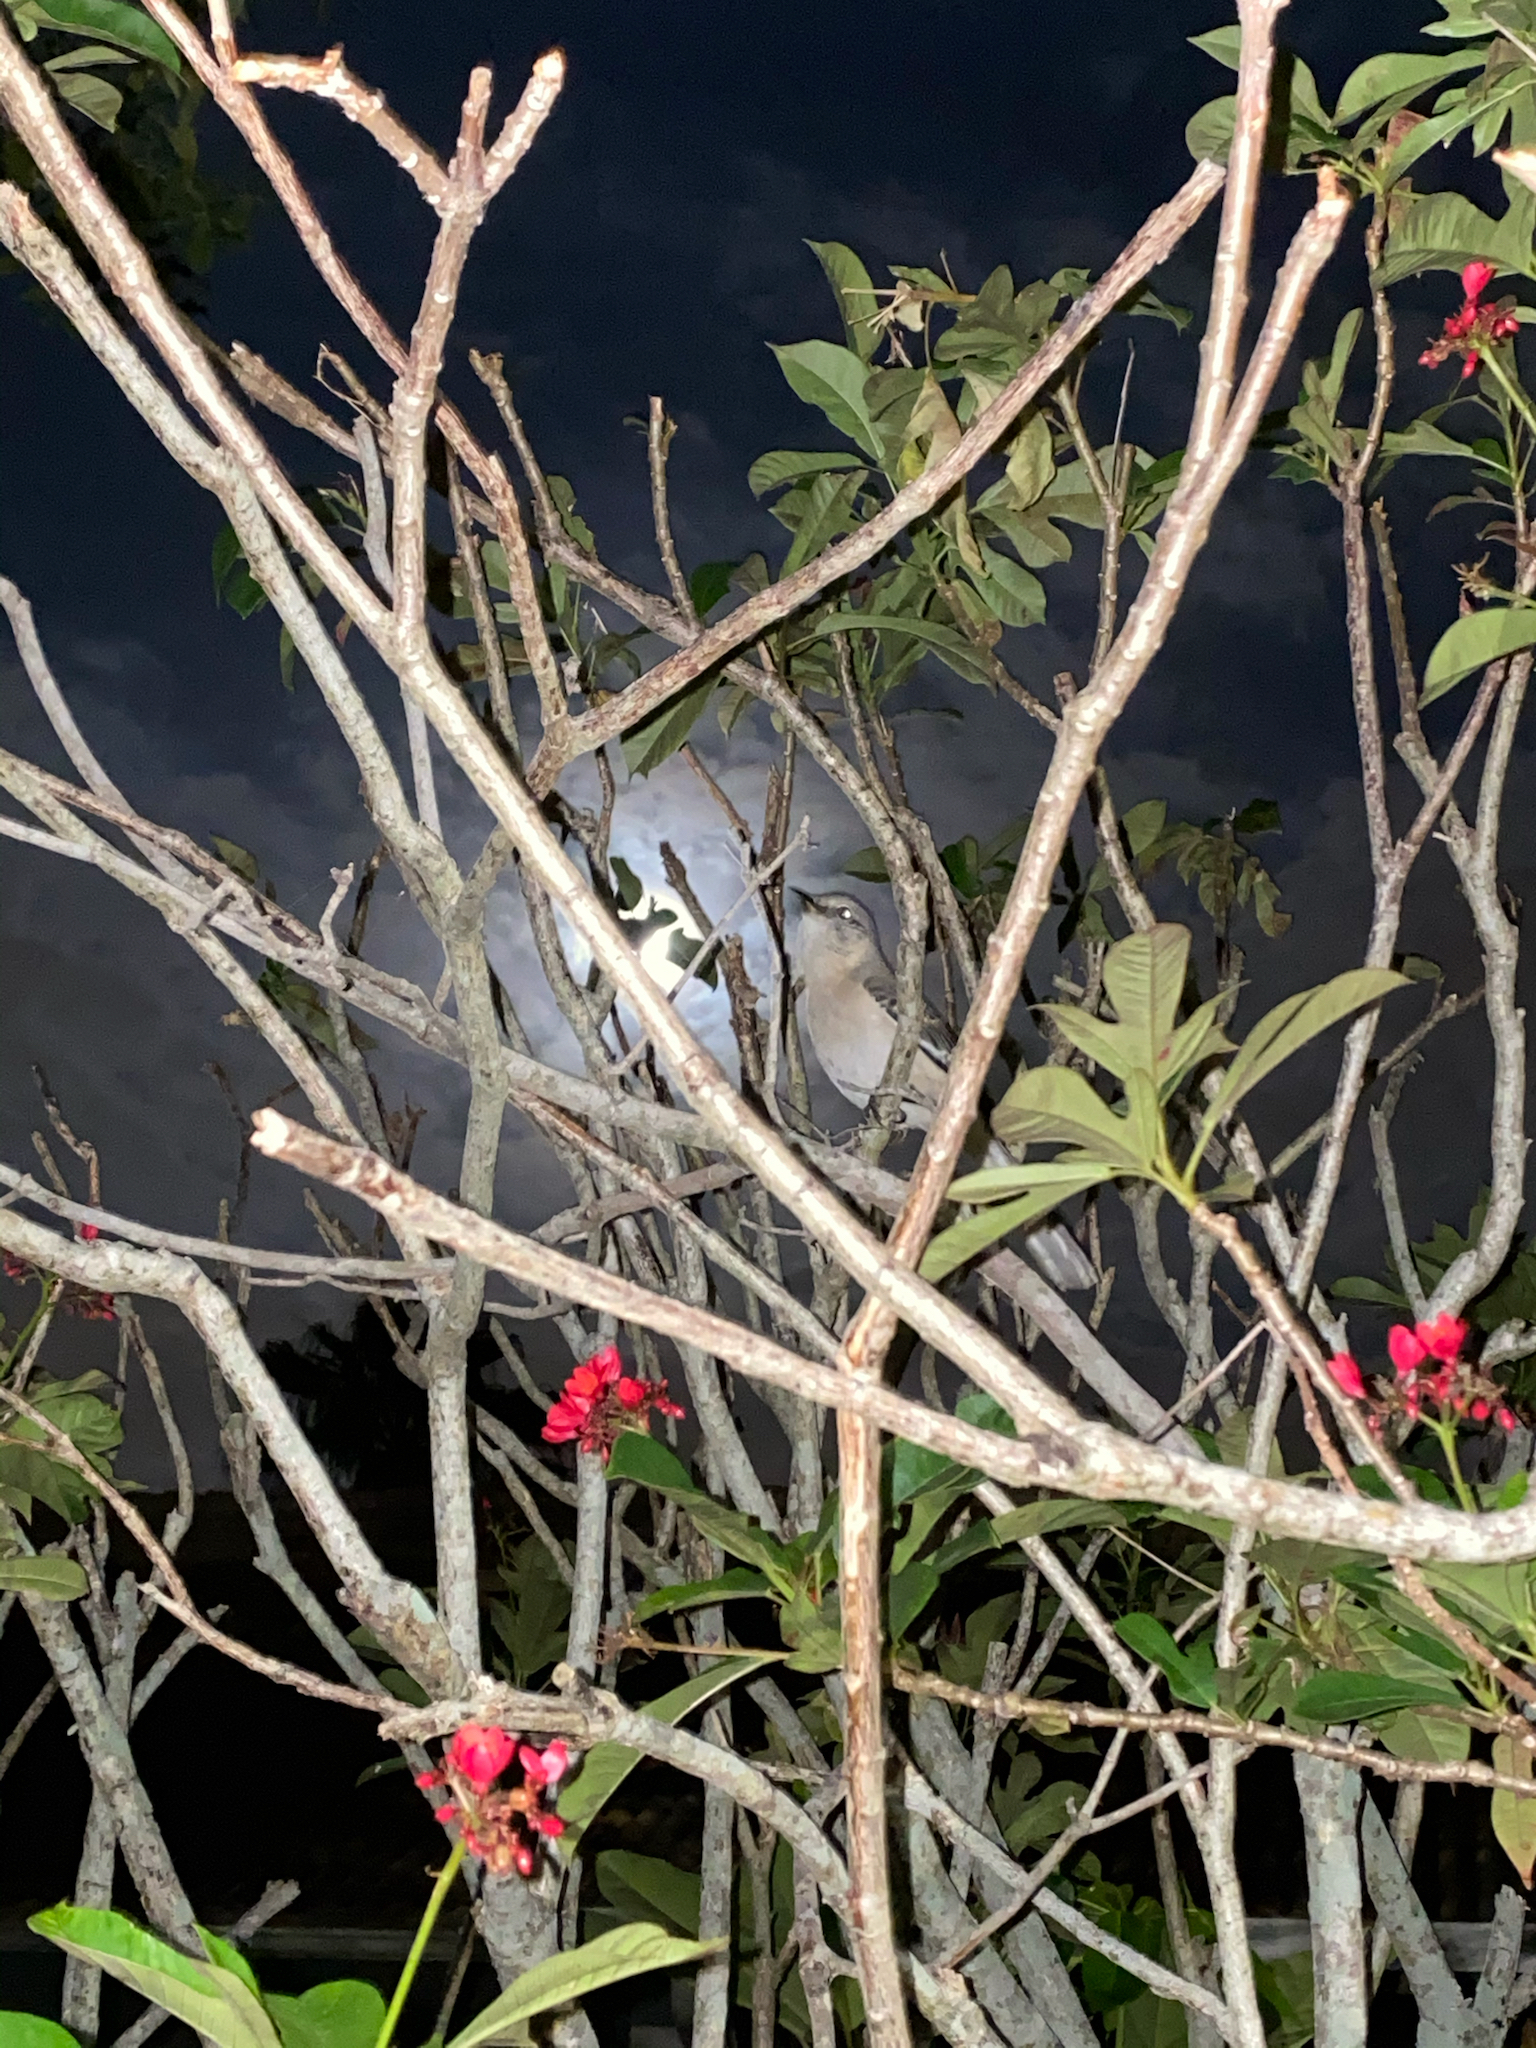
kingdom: Animalia
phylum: Chordata
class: Aves
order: Passeriformes
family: Mimidae
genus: Mimus
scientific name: Mimus polyglottos
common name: Northern mockingbird
